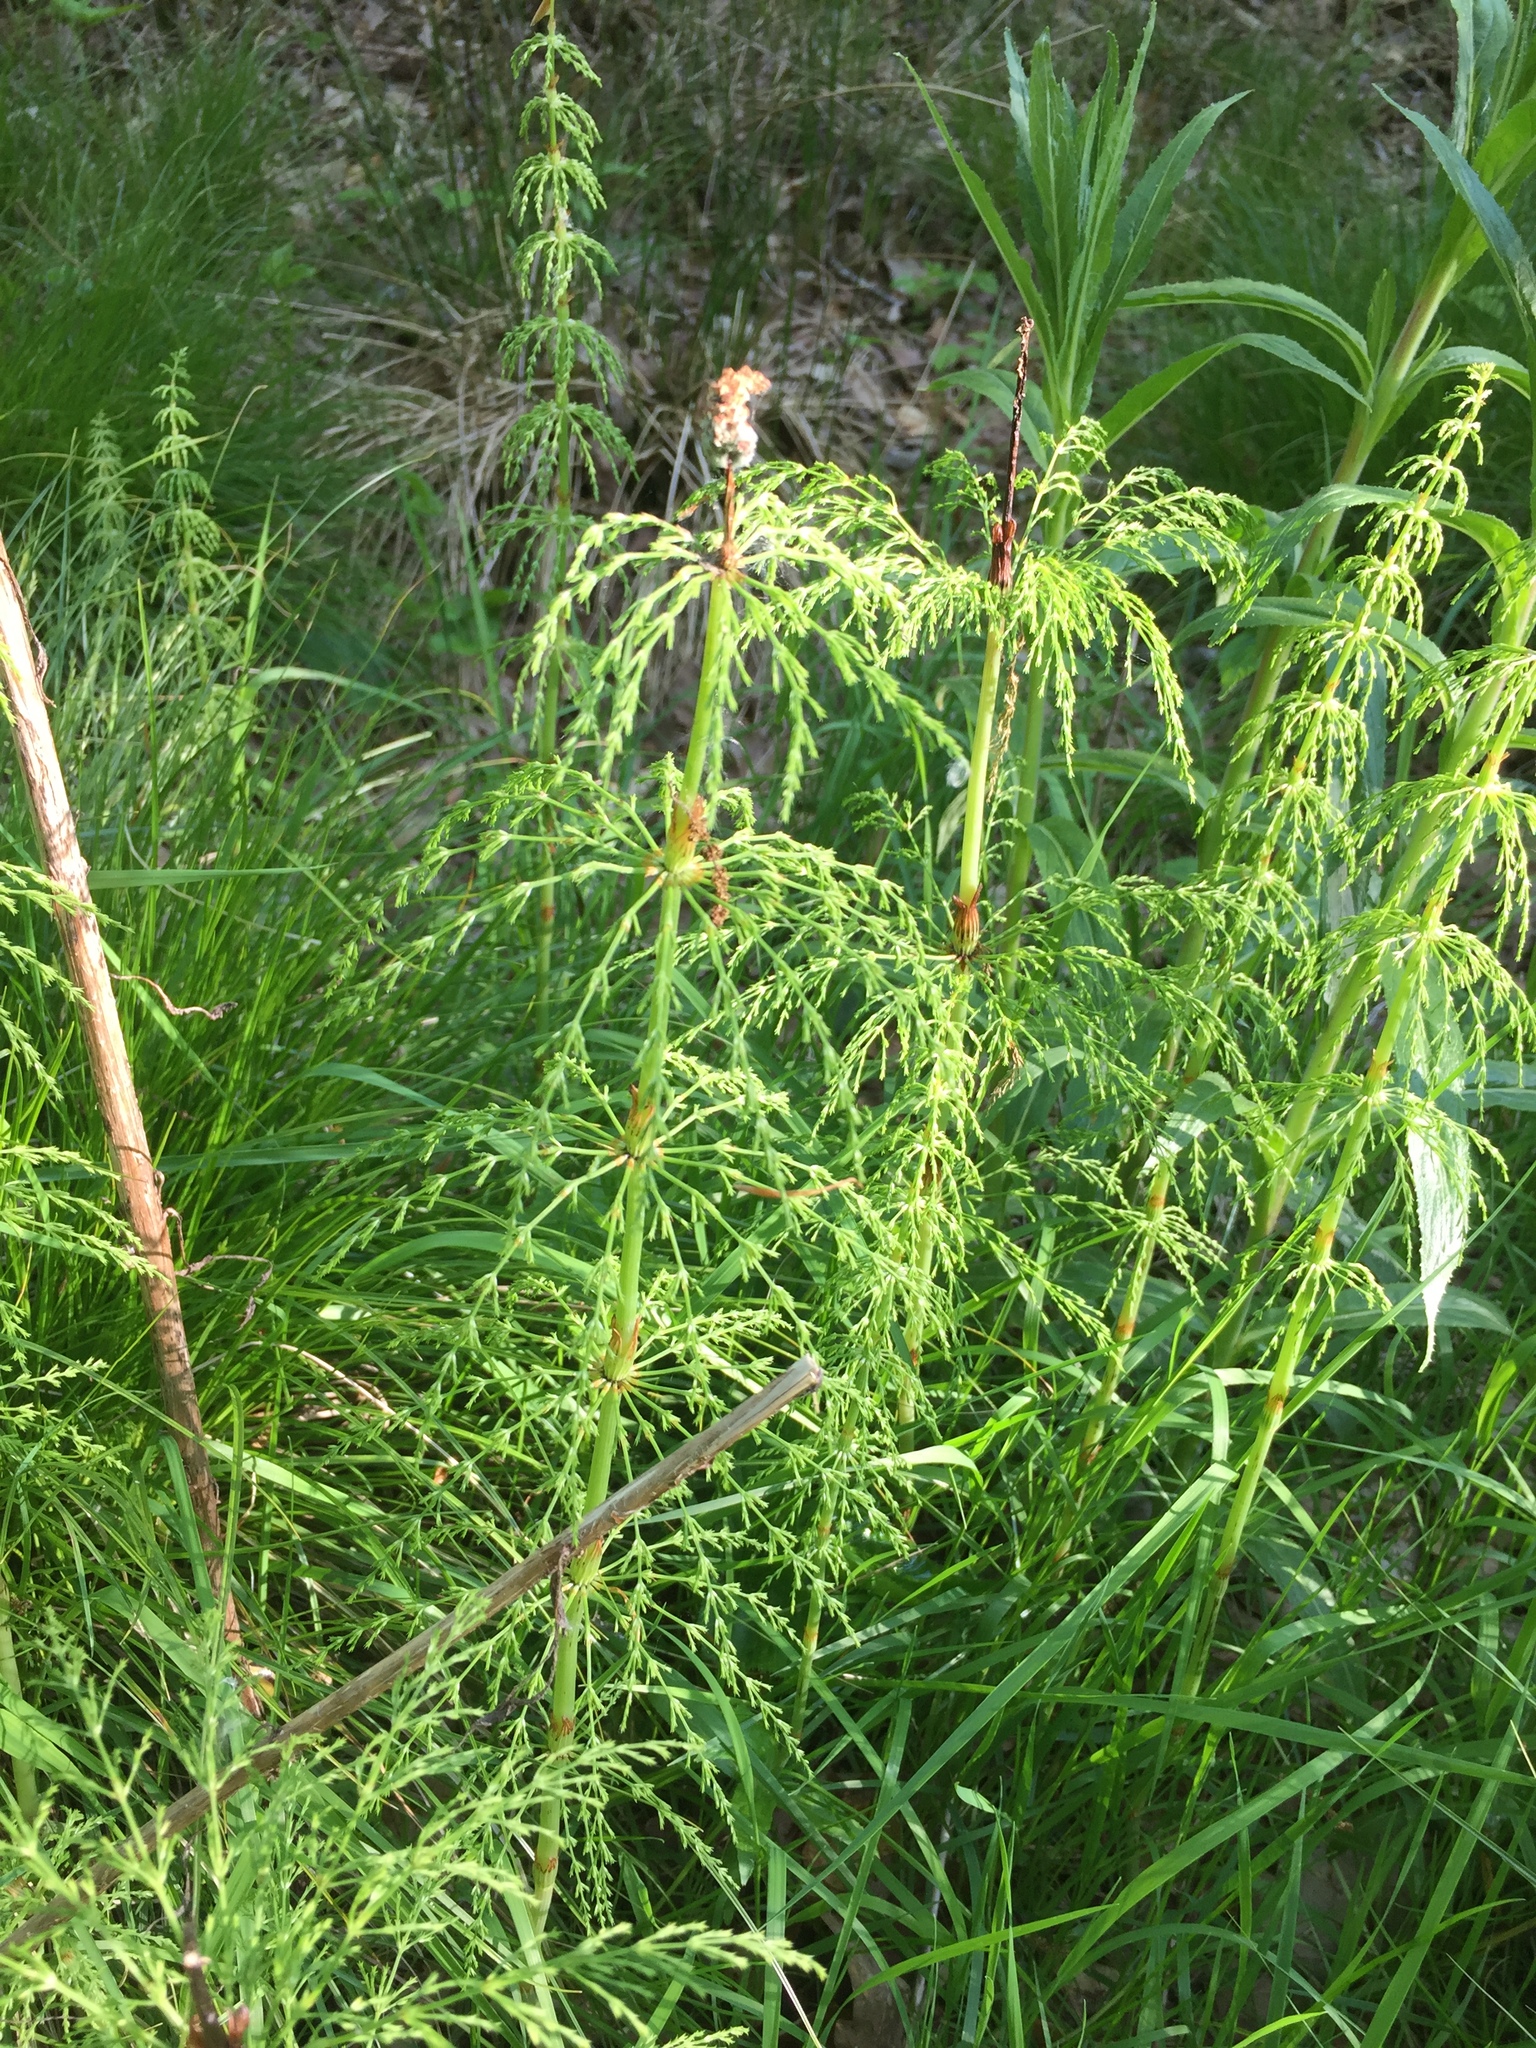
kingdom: Plantae
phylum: Tracheophyta
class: Polypodiopsida
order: Equisetales
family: Equisetaceae
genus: Equisetum
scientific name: Equisetum sylvaticum
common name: Wood horsetail
